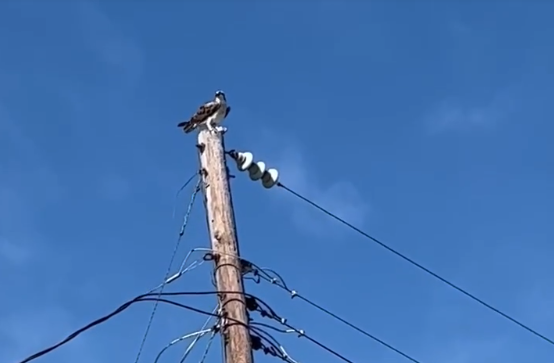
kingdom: Animalia
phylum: Chordata
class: Aves
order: Accipitriformes
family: Pandionidae
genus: Pandion
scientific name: Pandion haliaetus
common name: Osprey
